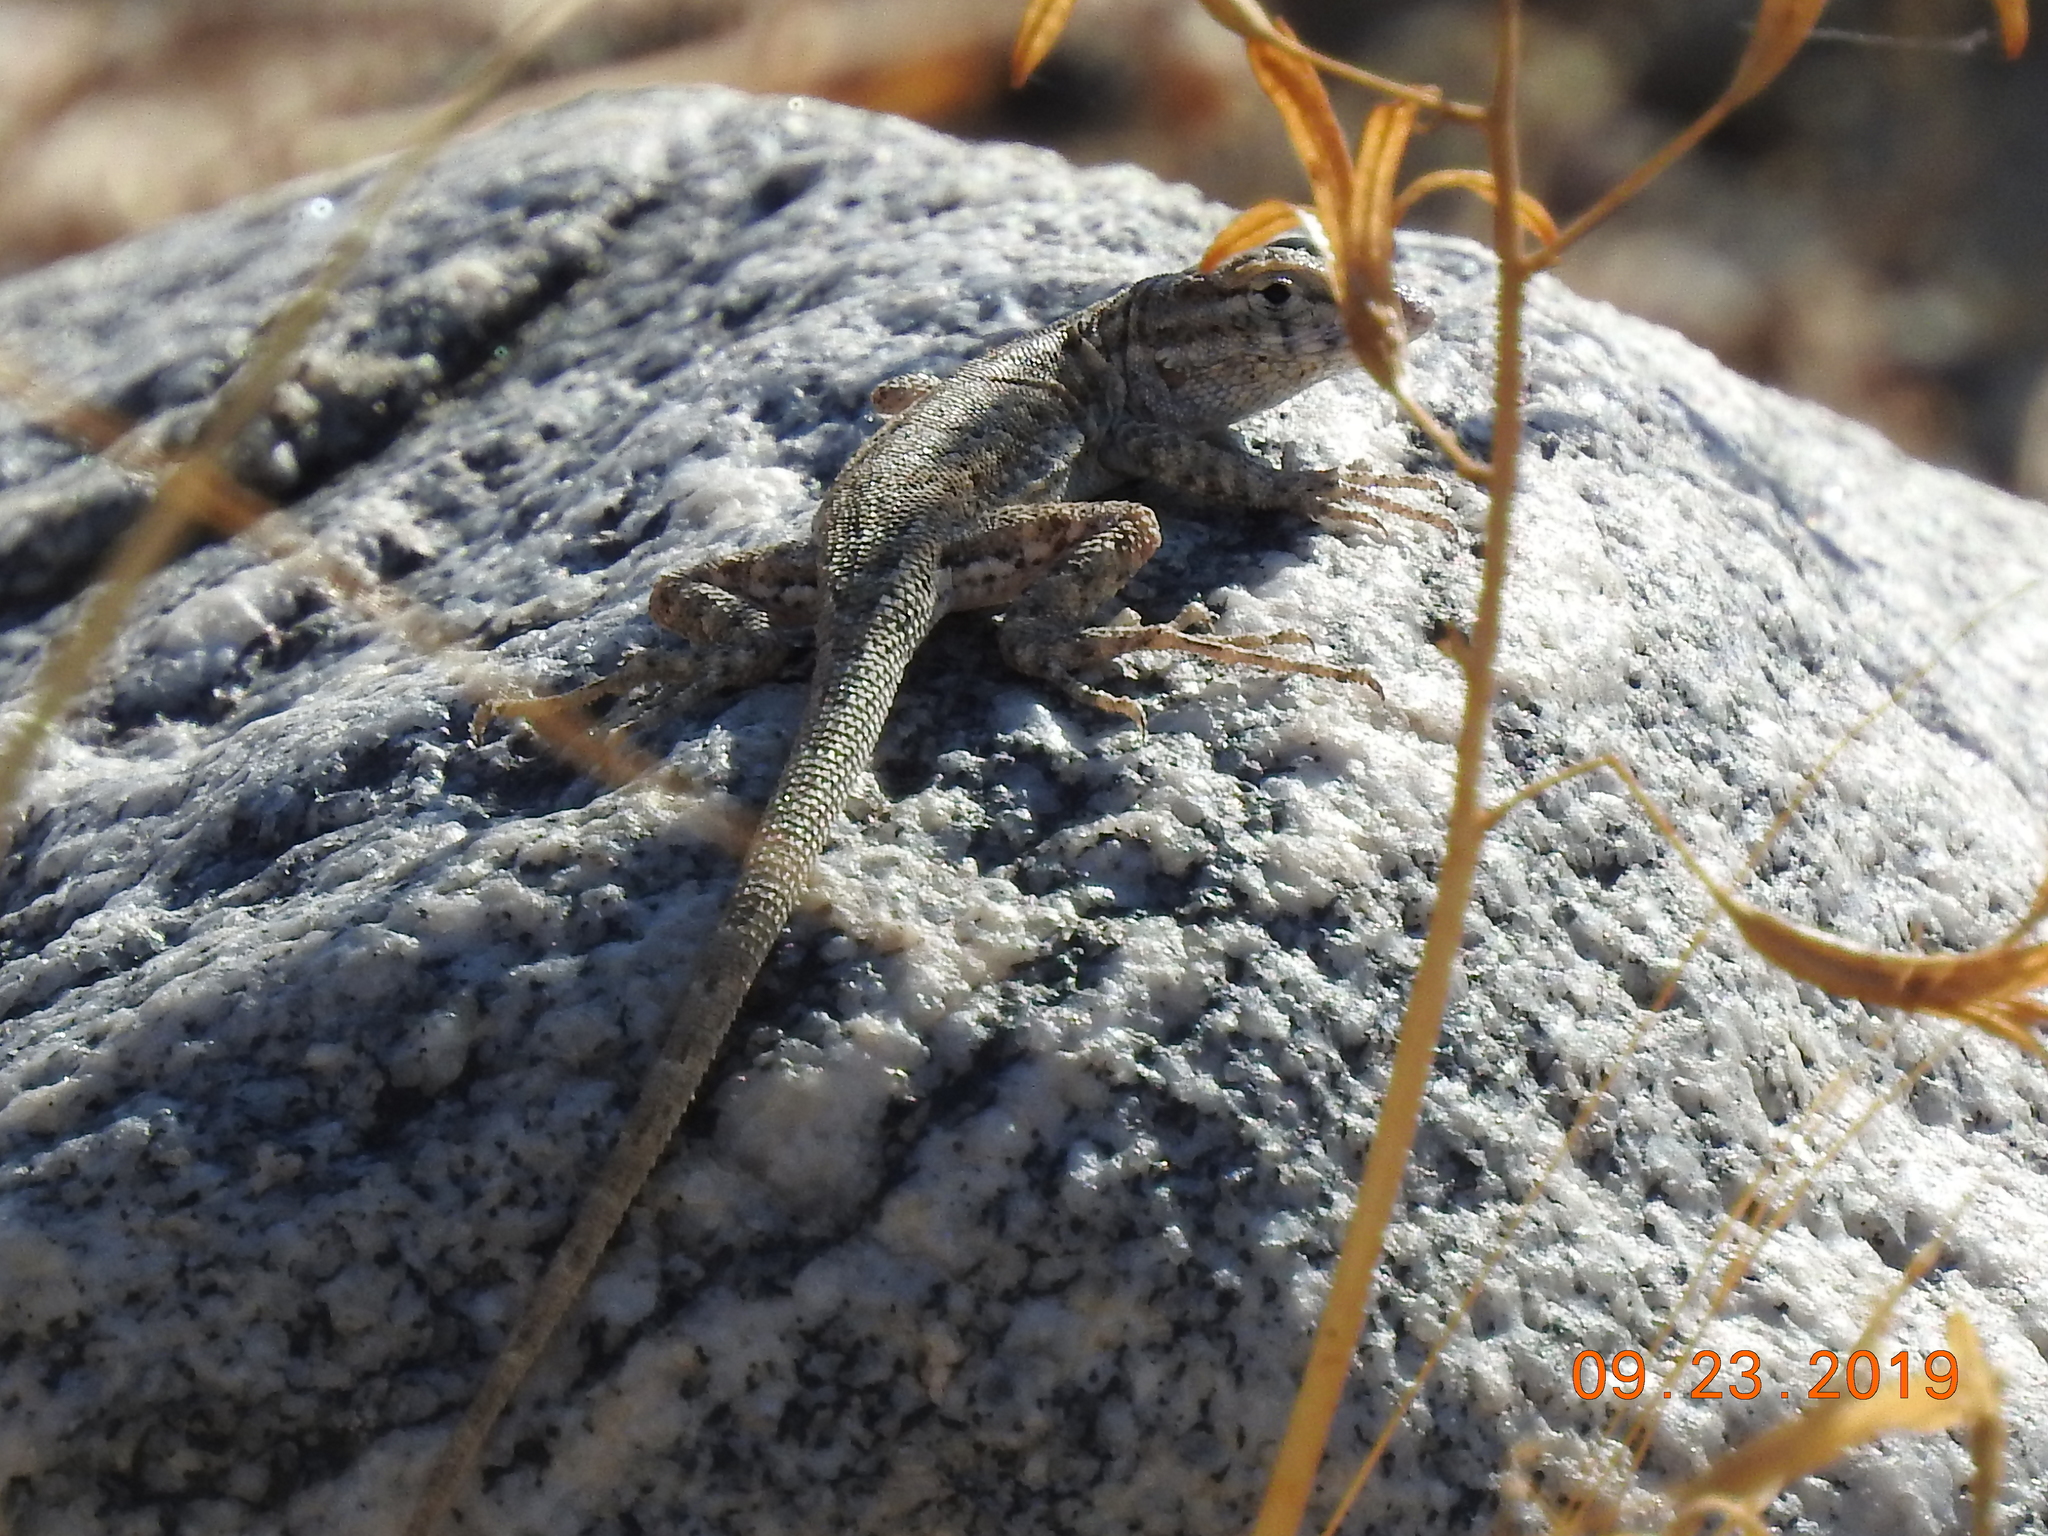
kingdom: Animalia
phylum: Chordata
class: Squamata
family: Phrynosomatidae
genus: Uta
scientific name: Uta stansburiana
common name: Side-blotched lizard
